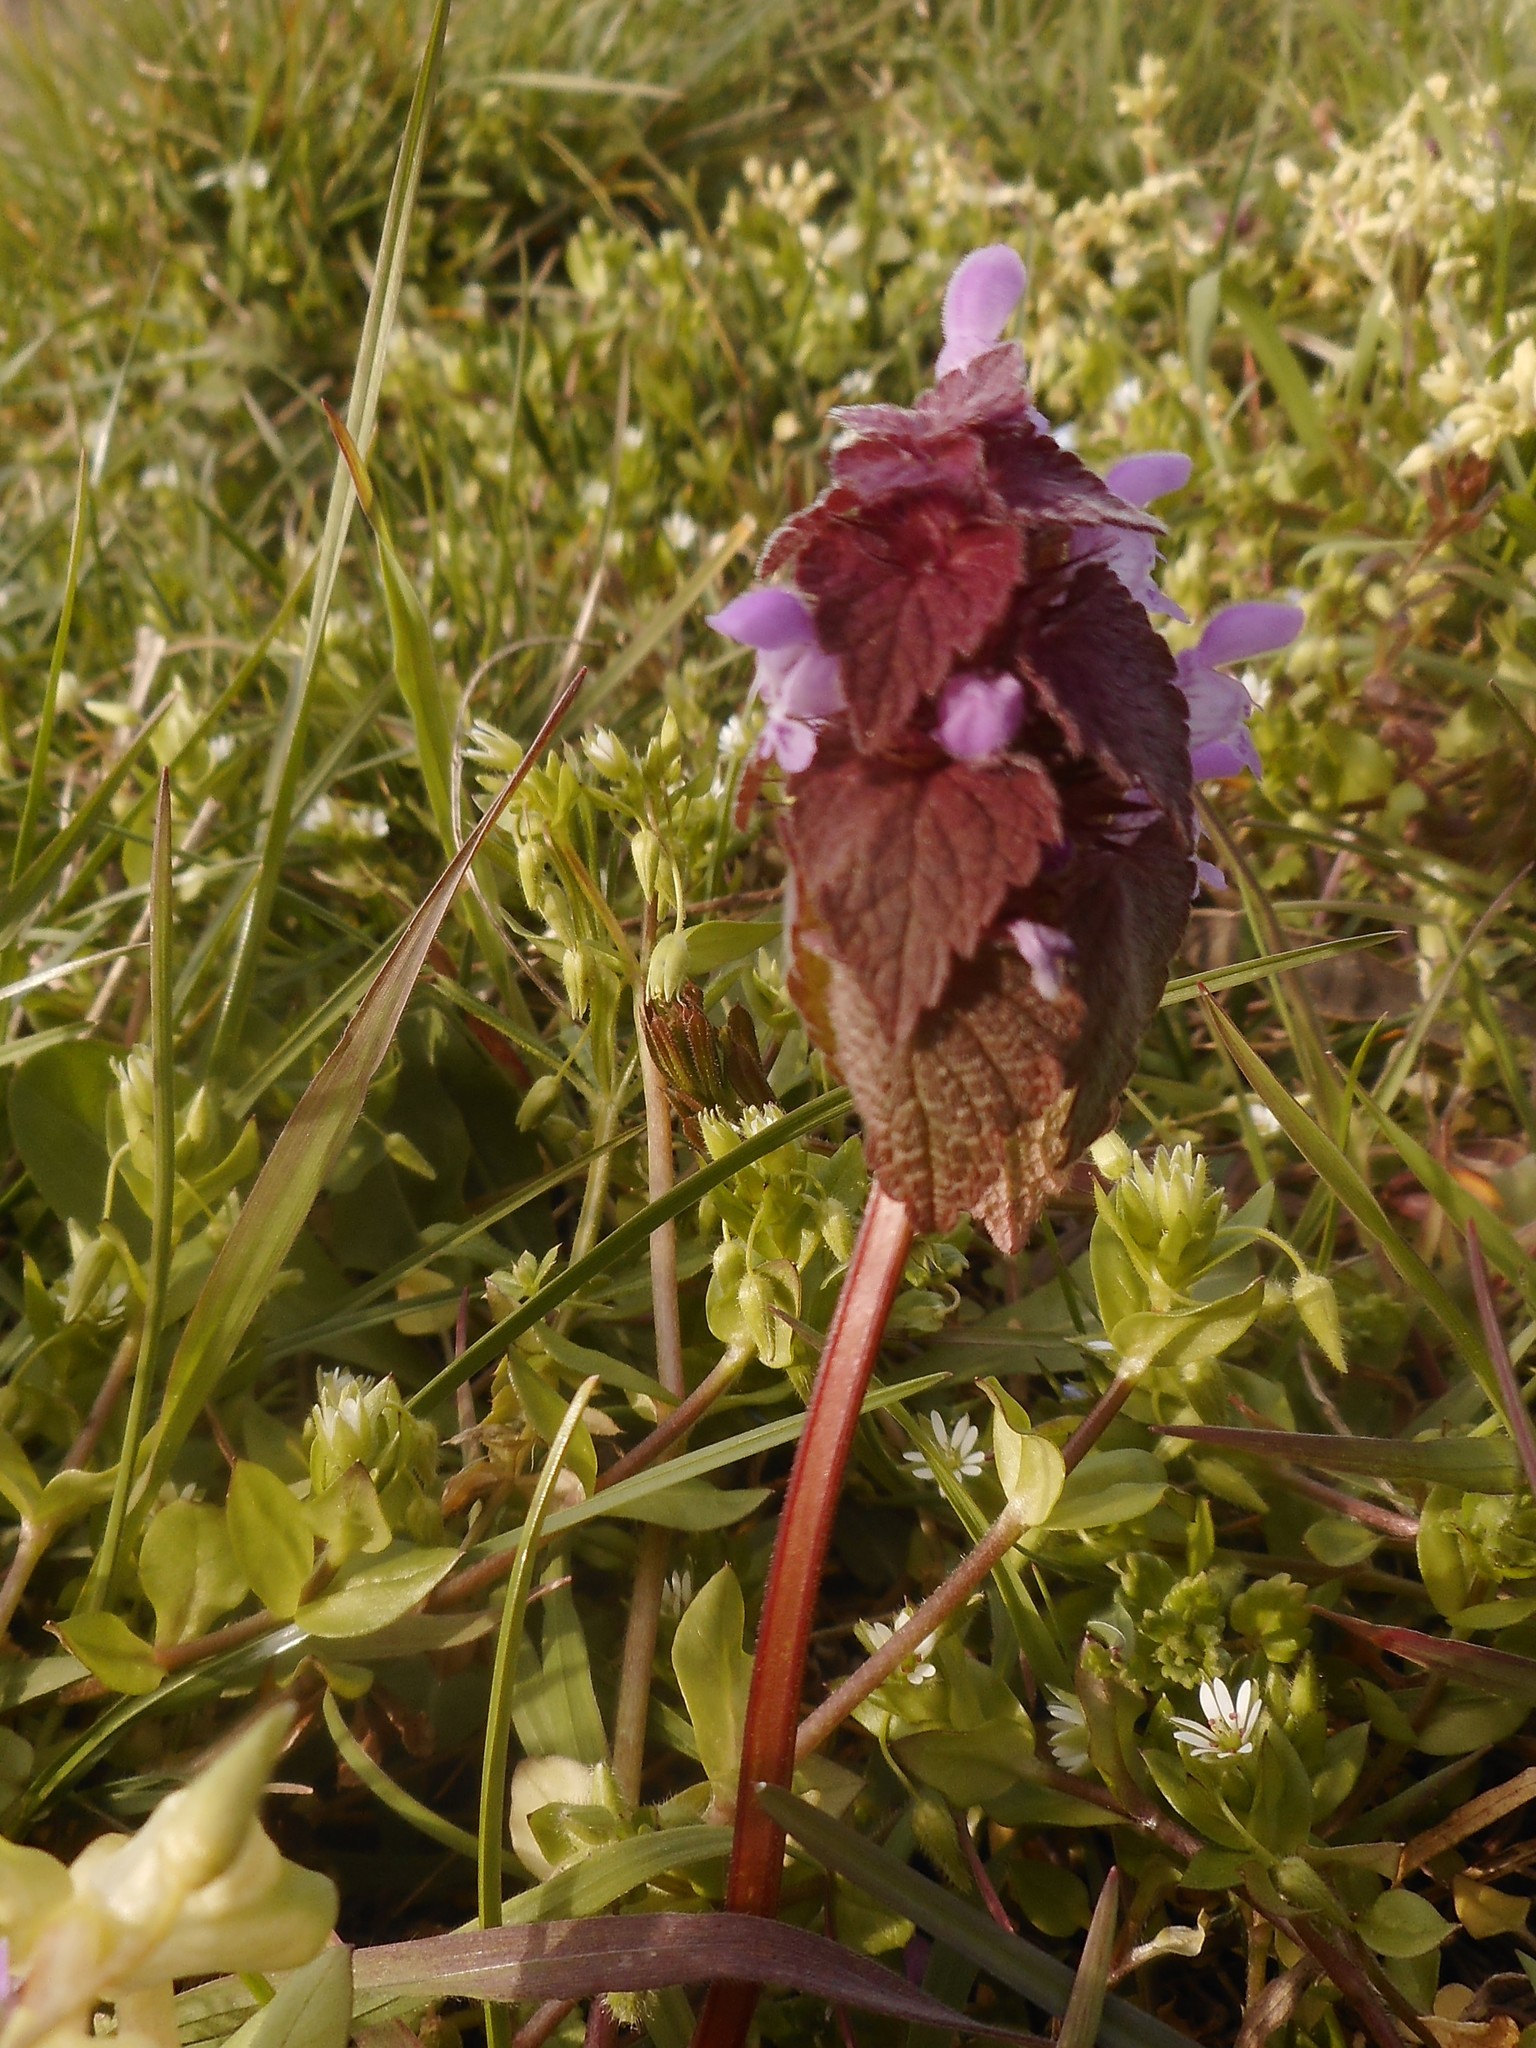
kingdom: Plantae
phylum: Tracheophyta
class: Magnoliopsida
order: Lamiales
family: Lamiaceae
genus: Lamium
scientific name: Lamium purpureum
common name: Red dead-nettle
